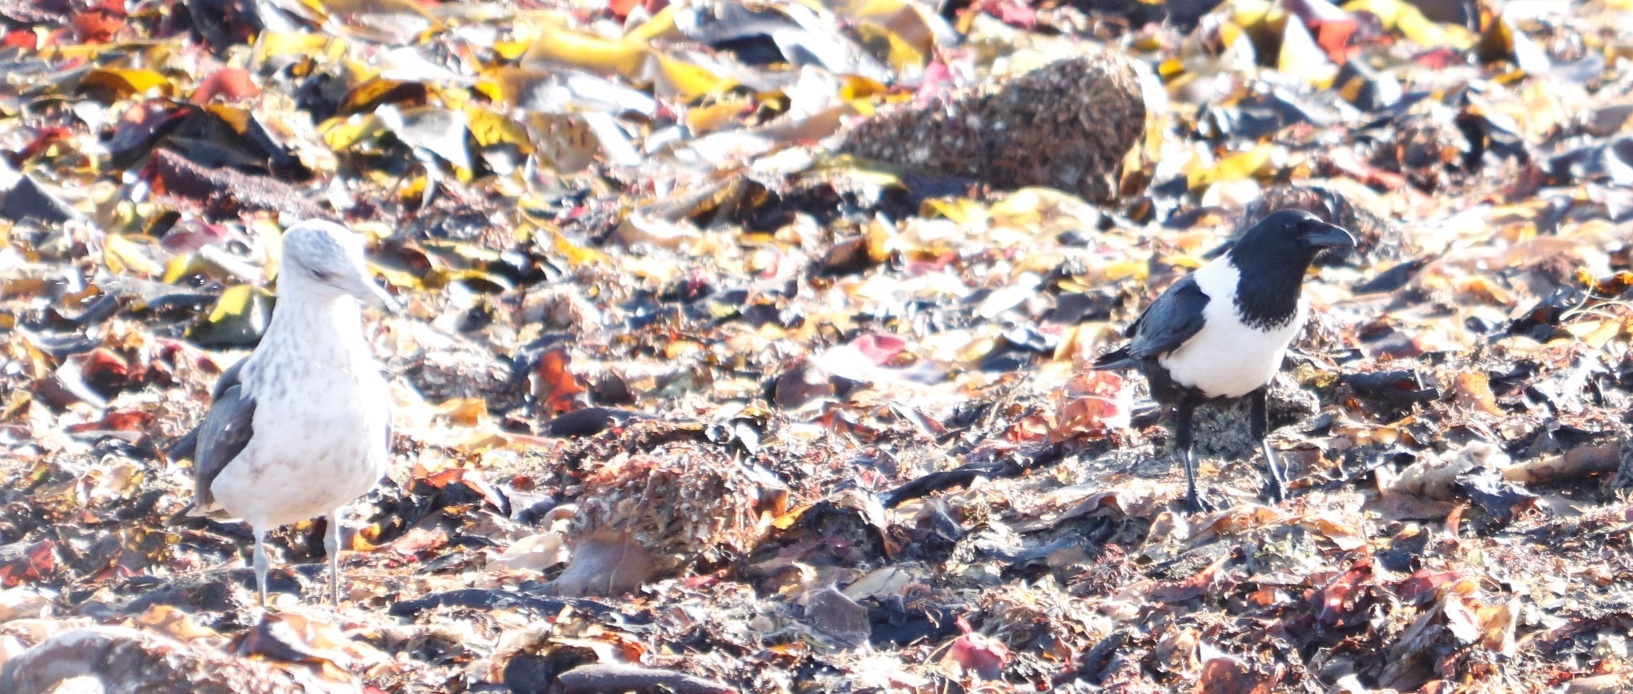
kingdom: Animalia
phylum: Chordata
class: Aves
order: Passeriformes
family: Corvidae
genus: Corvus
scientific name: Corvus albus
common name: Pied crow
